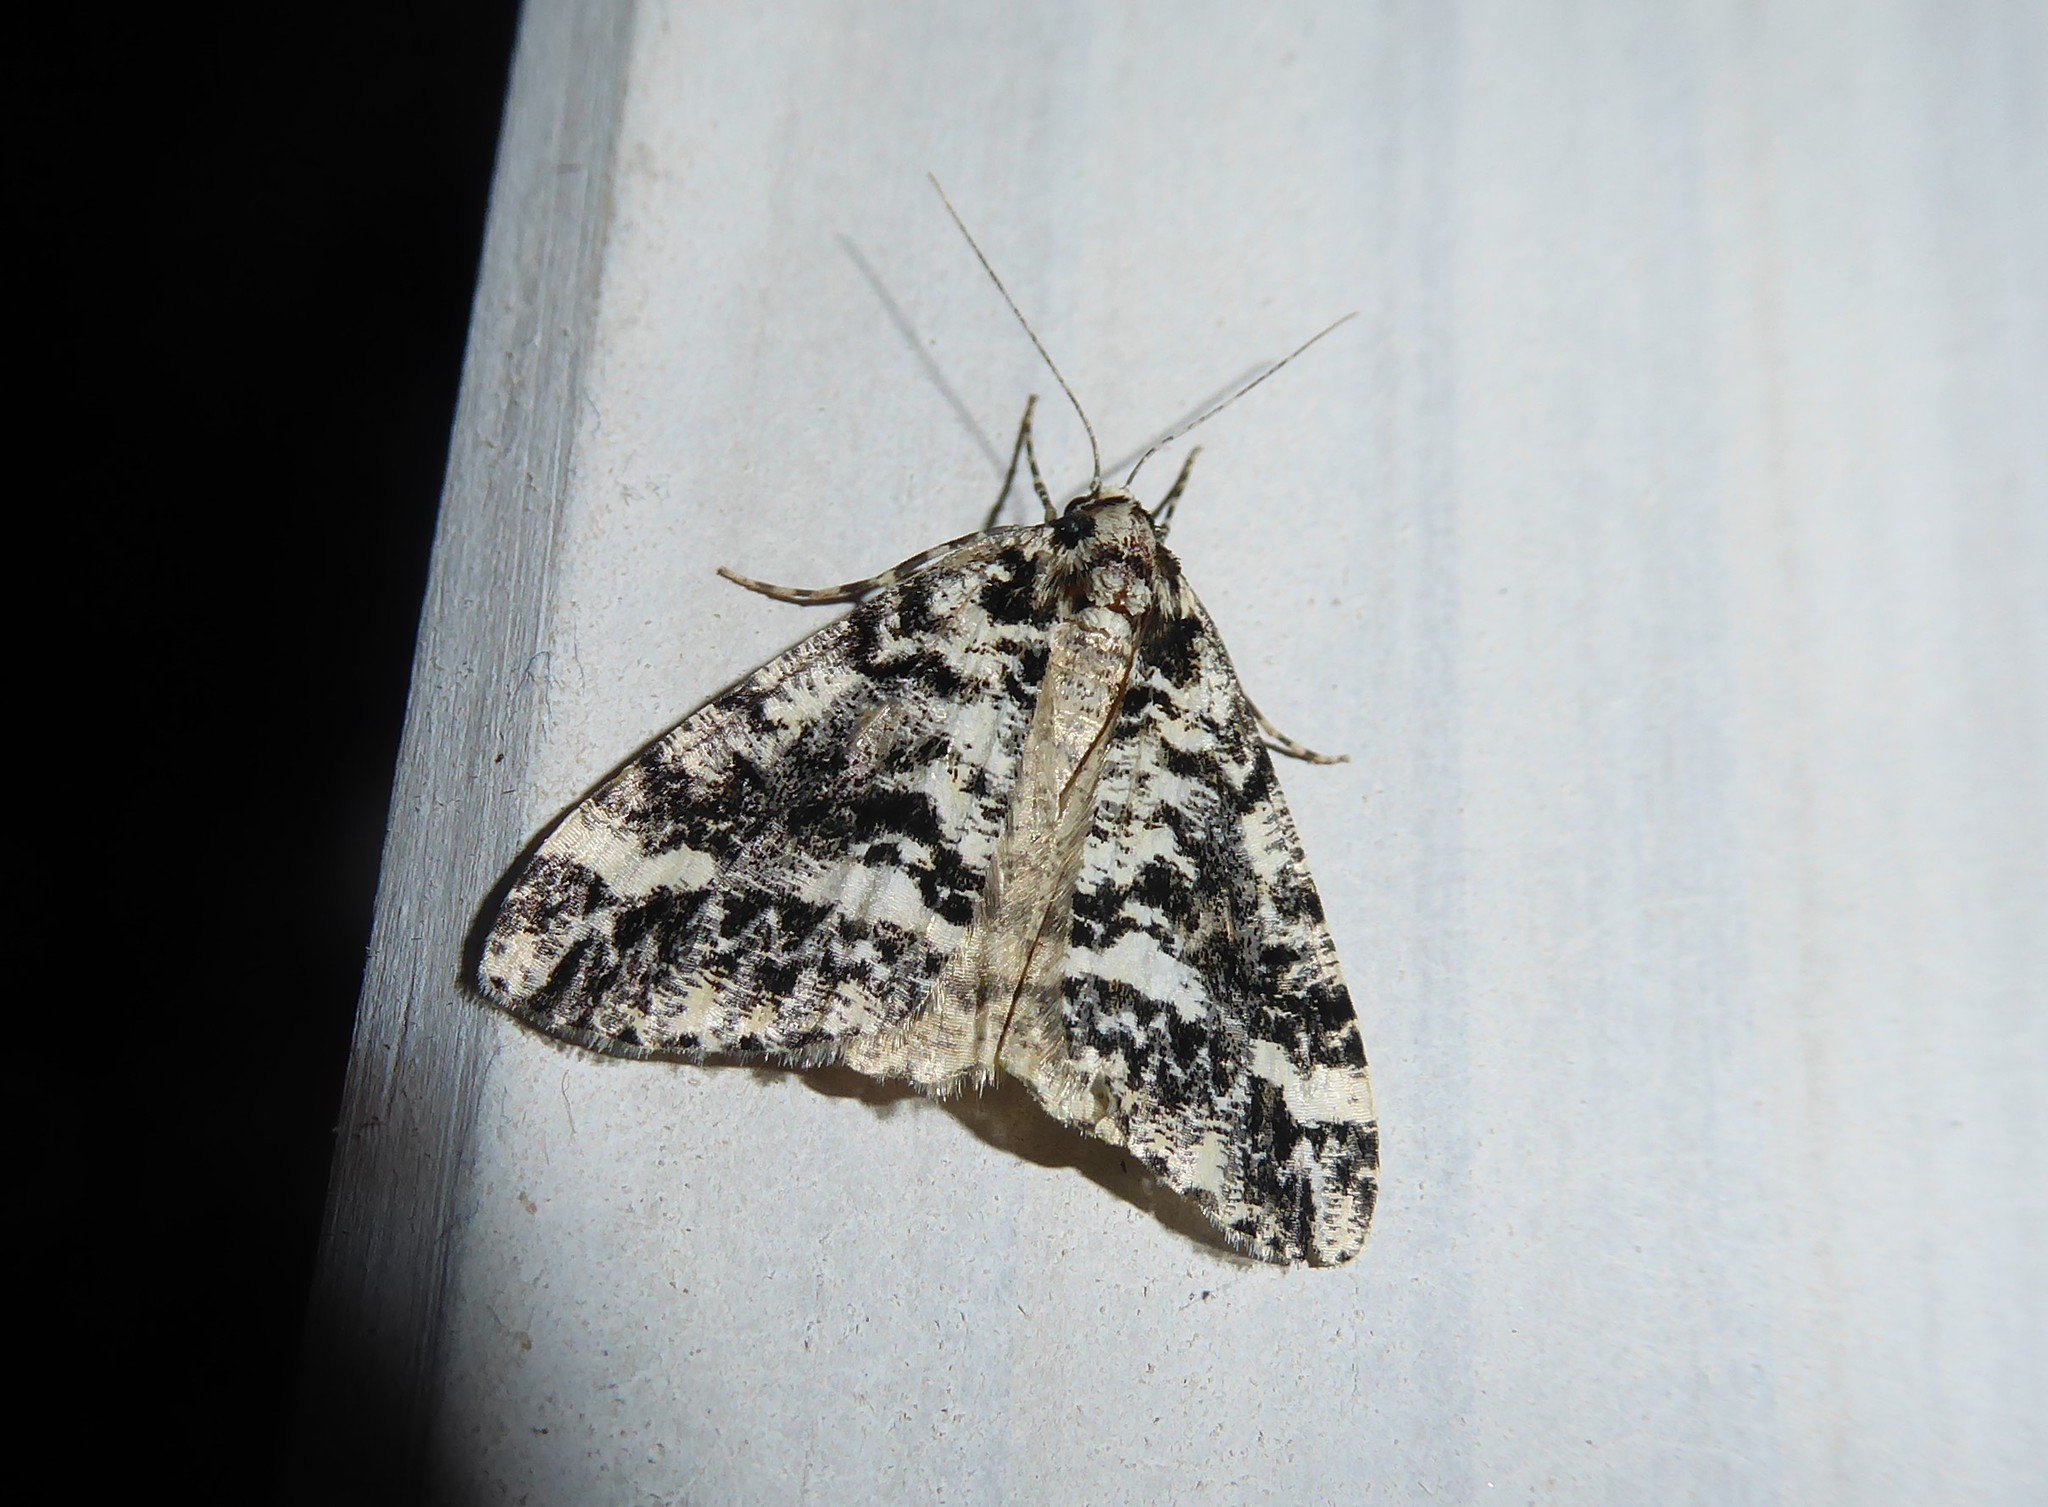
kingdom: Animalia
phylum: Arthropoda
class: Insecta
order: Lepidoptera
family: Geometridae
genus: Pseudocoremia
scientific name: Pseudocoremia leucelaea
